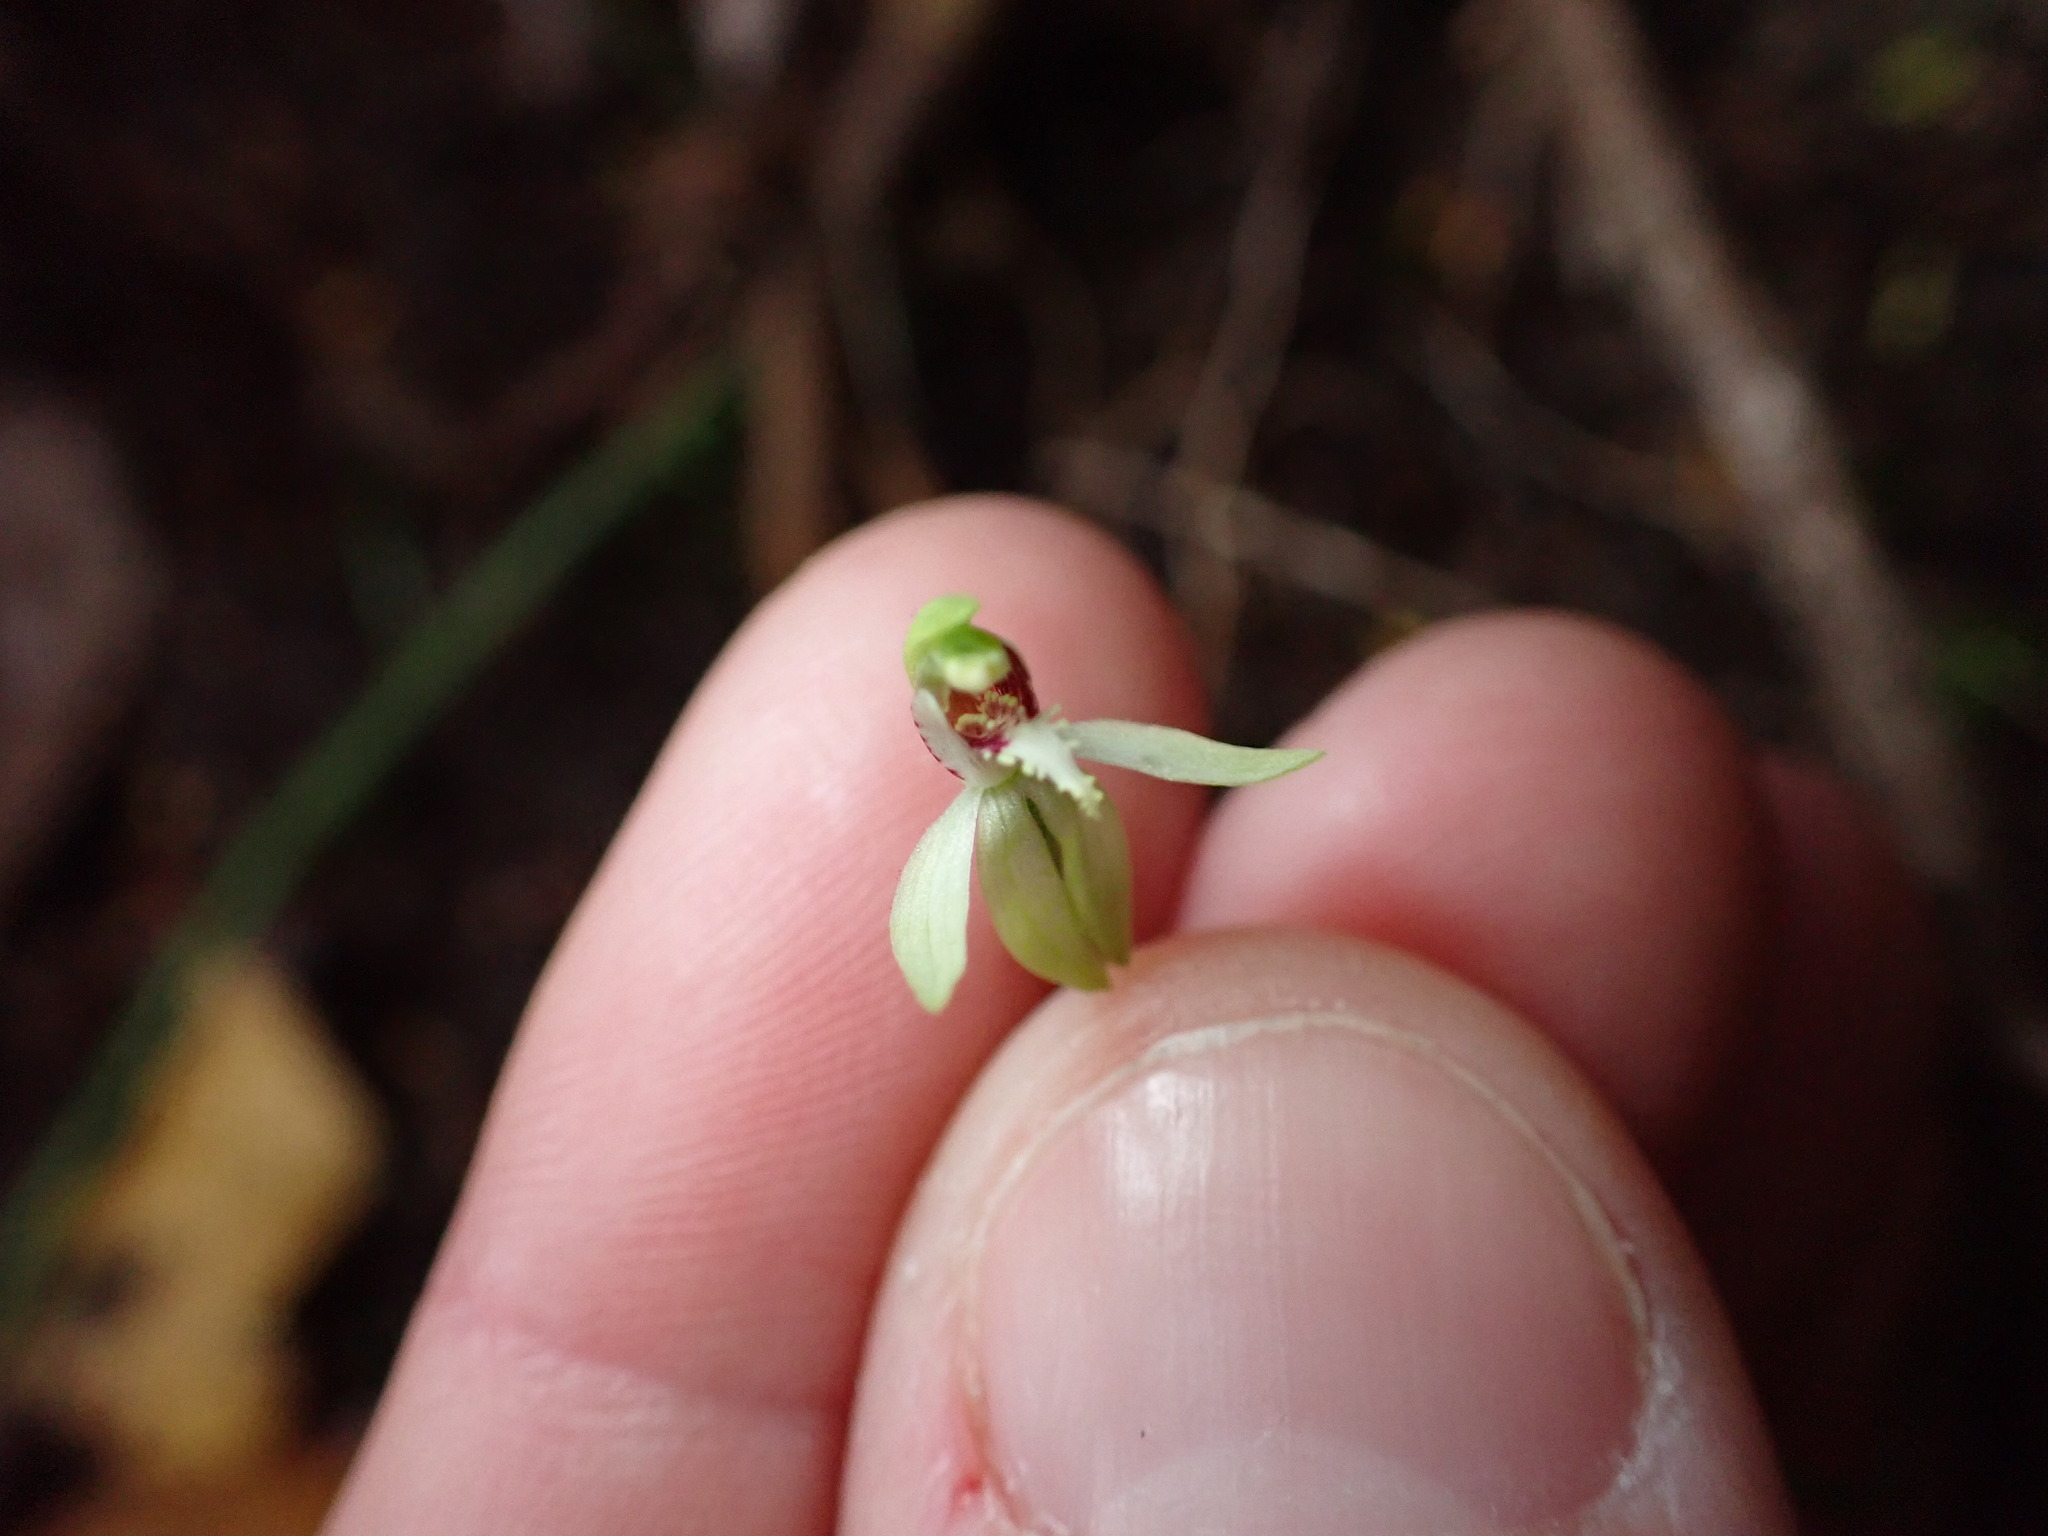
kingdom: Plantae
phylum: Tracheophyta
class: Liliopsida
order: Asparagales
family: Orchidaceae
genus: Caladenia
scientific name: Caladenia chlorostyla
